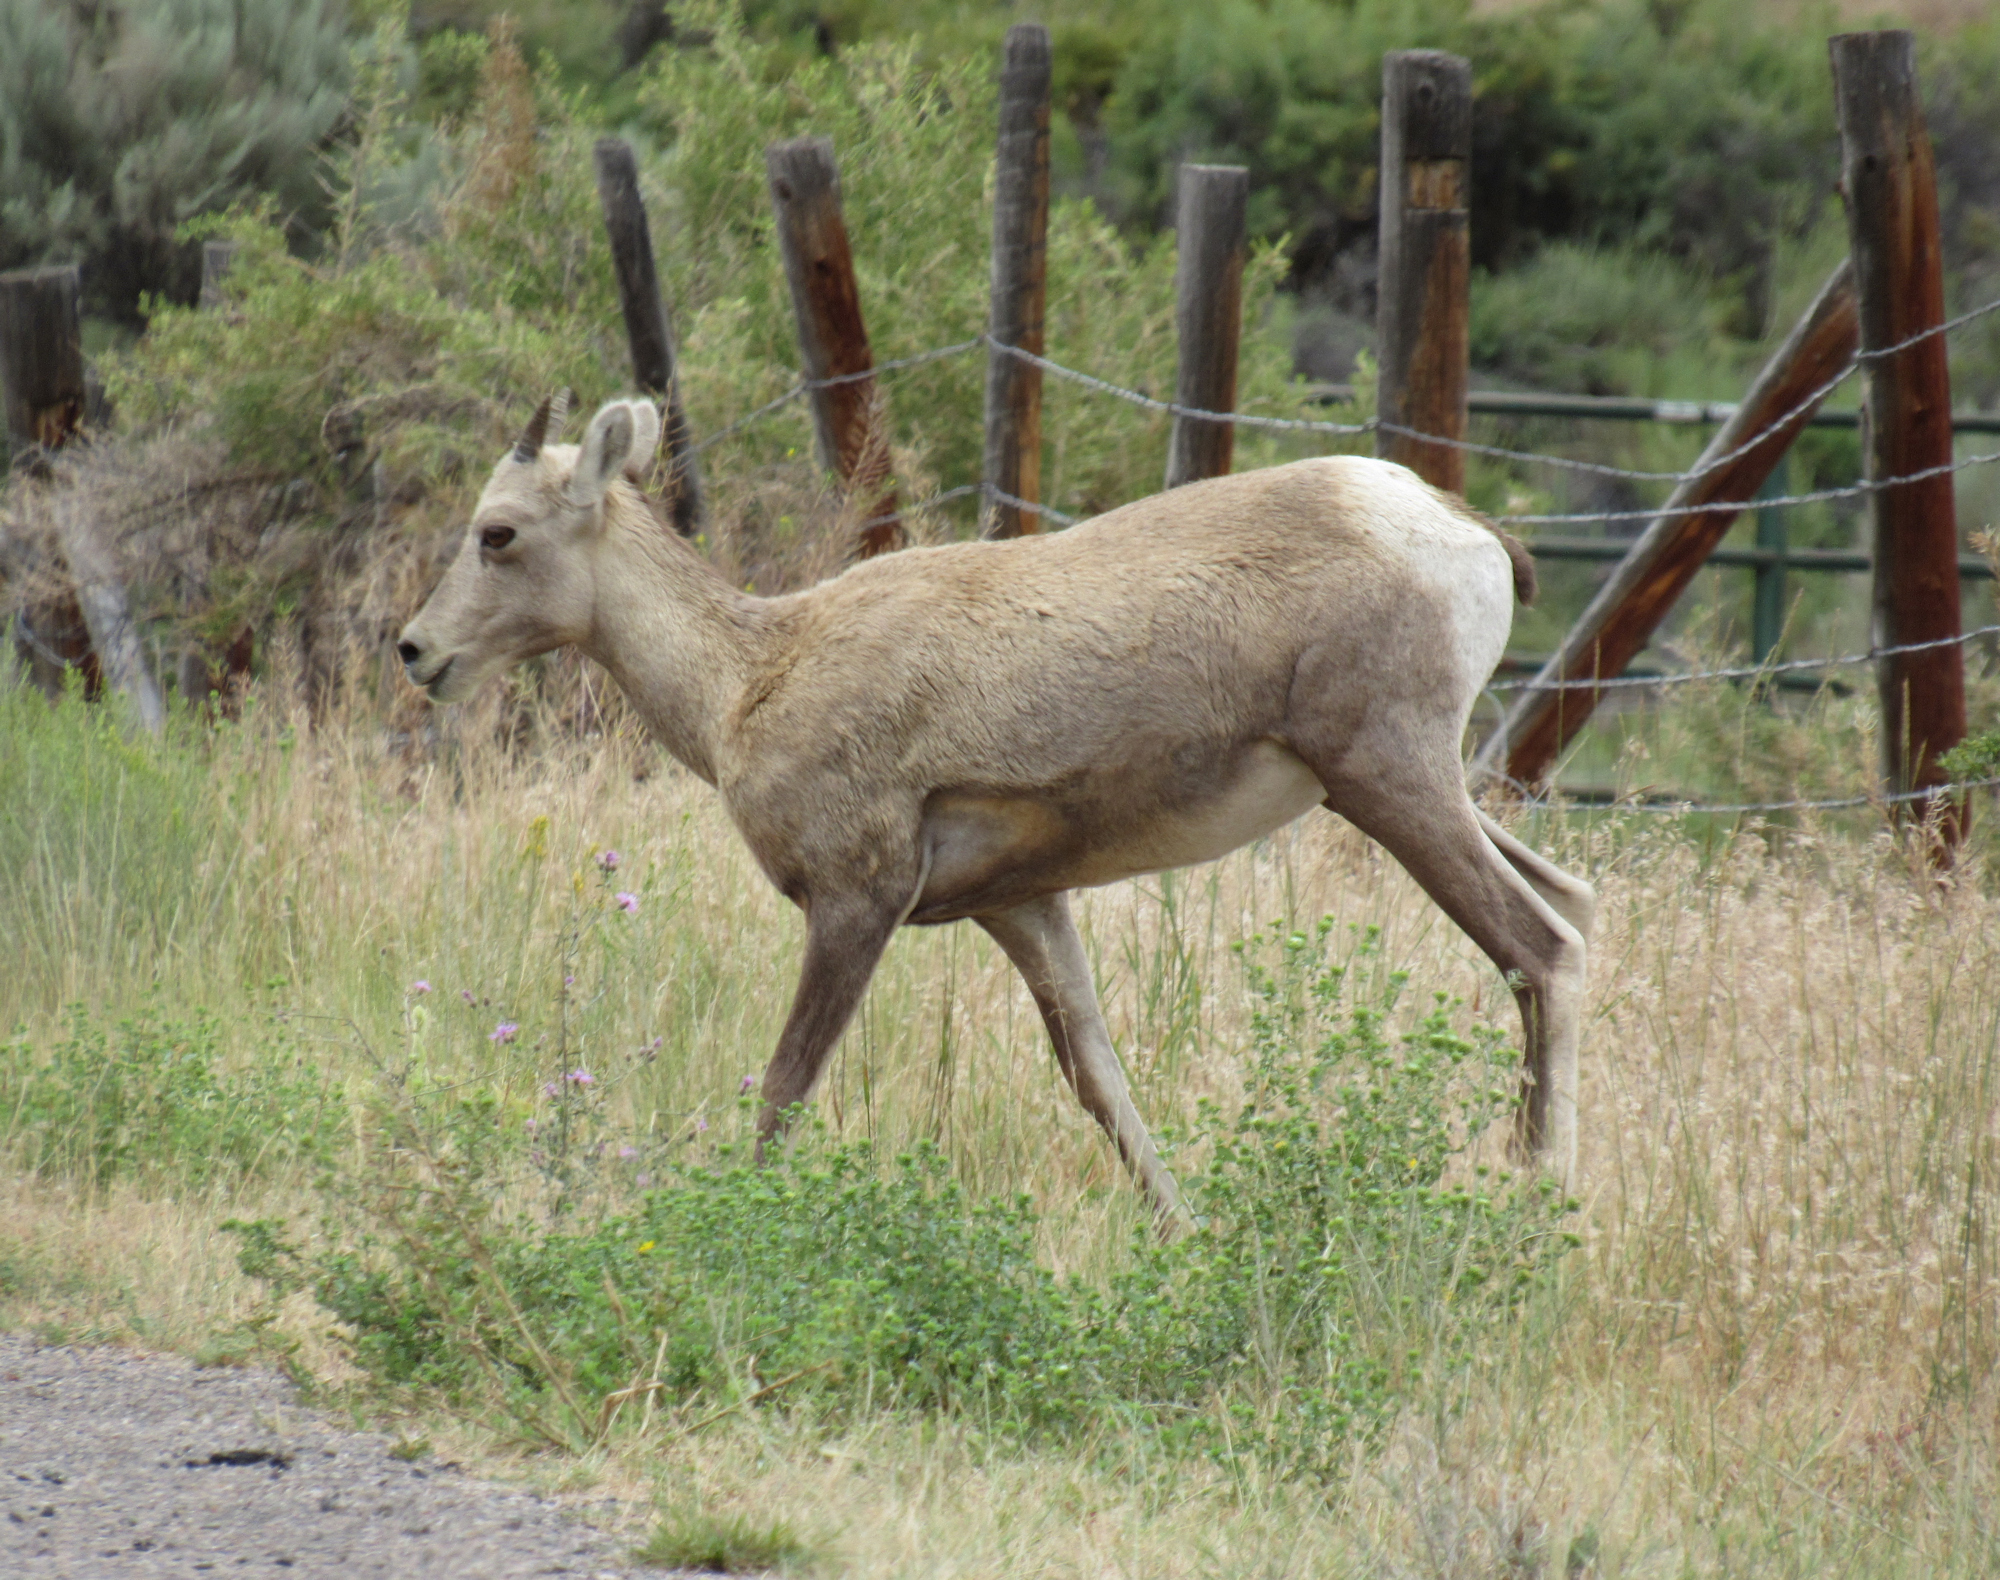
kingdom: Animalia
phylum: Chordata
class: Mammalia
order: Artiodactyla
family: Bovidae
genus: Ovis
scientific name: Ovis canadensis
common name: Bighorn sheep
